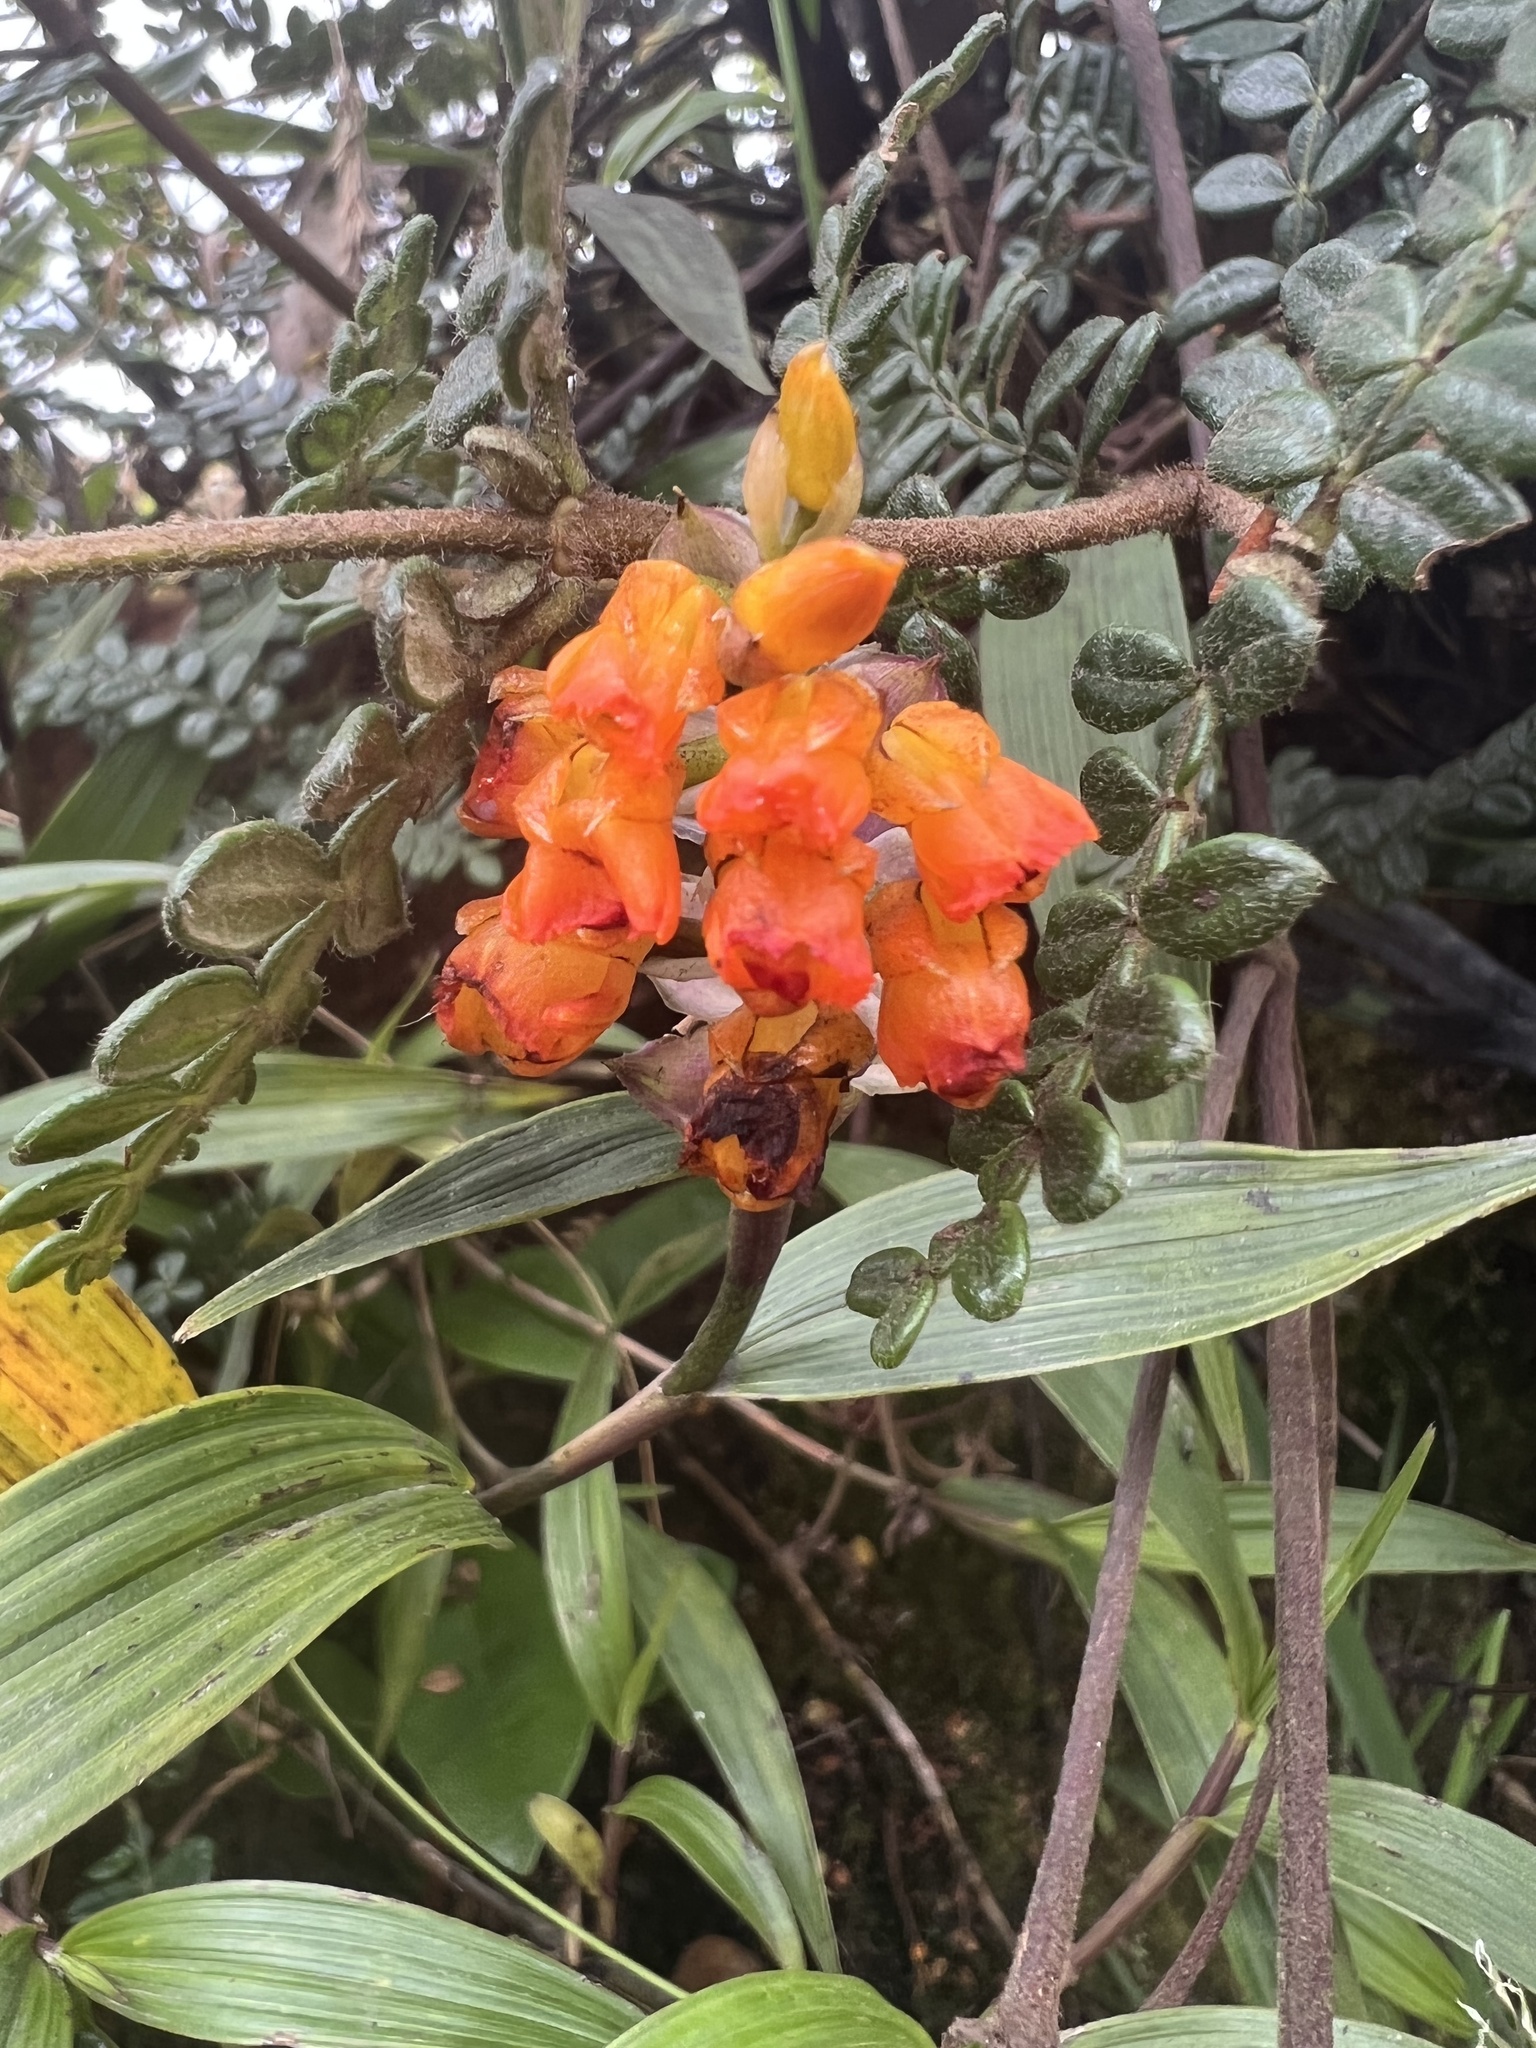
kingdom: Plantae
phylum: Tracheophyta
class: Liliopsida
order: Asparagales
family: Orchidaceae
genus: Elleanthus
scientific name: Elleanthus aurantiacus
